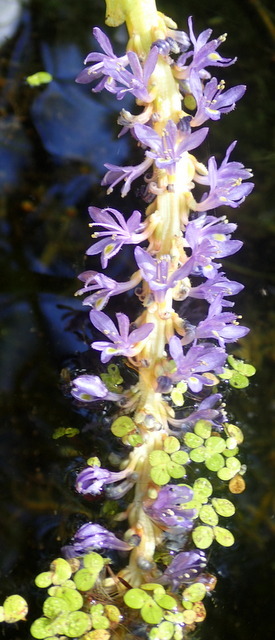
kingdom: Plantae
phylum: Tracheophyta
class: Liliopsida
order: Commelinales
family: Pontederiaceae
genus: Pontederia
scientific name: Pontederia cordata
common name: Pickerelweed
